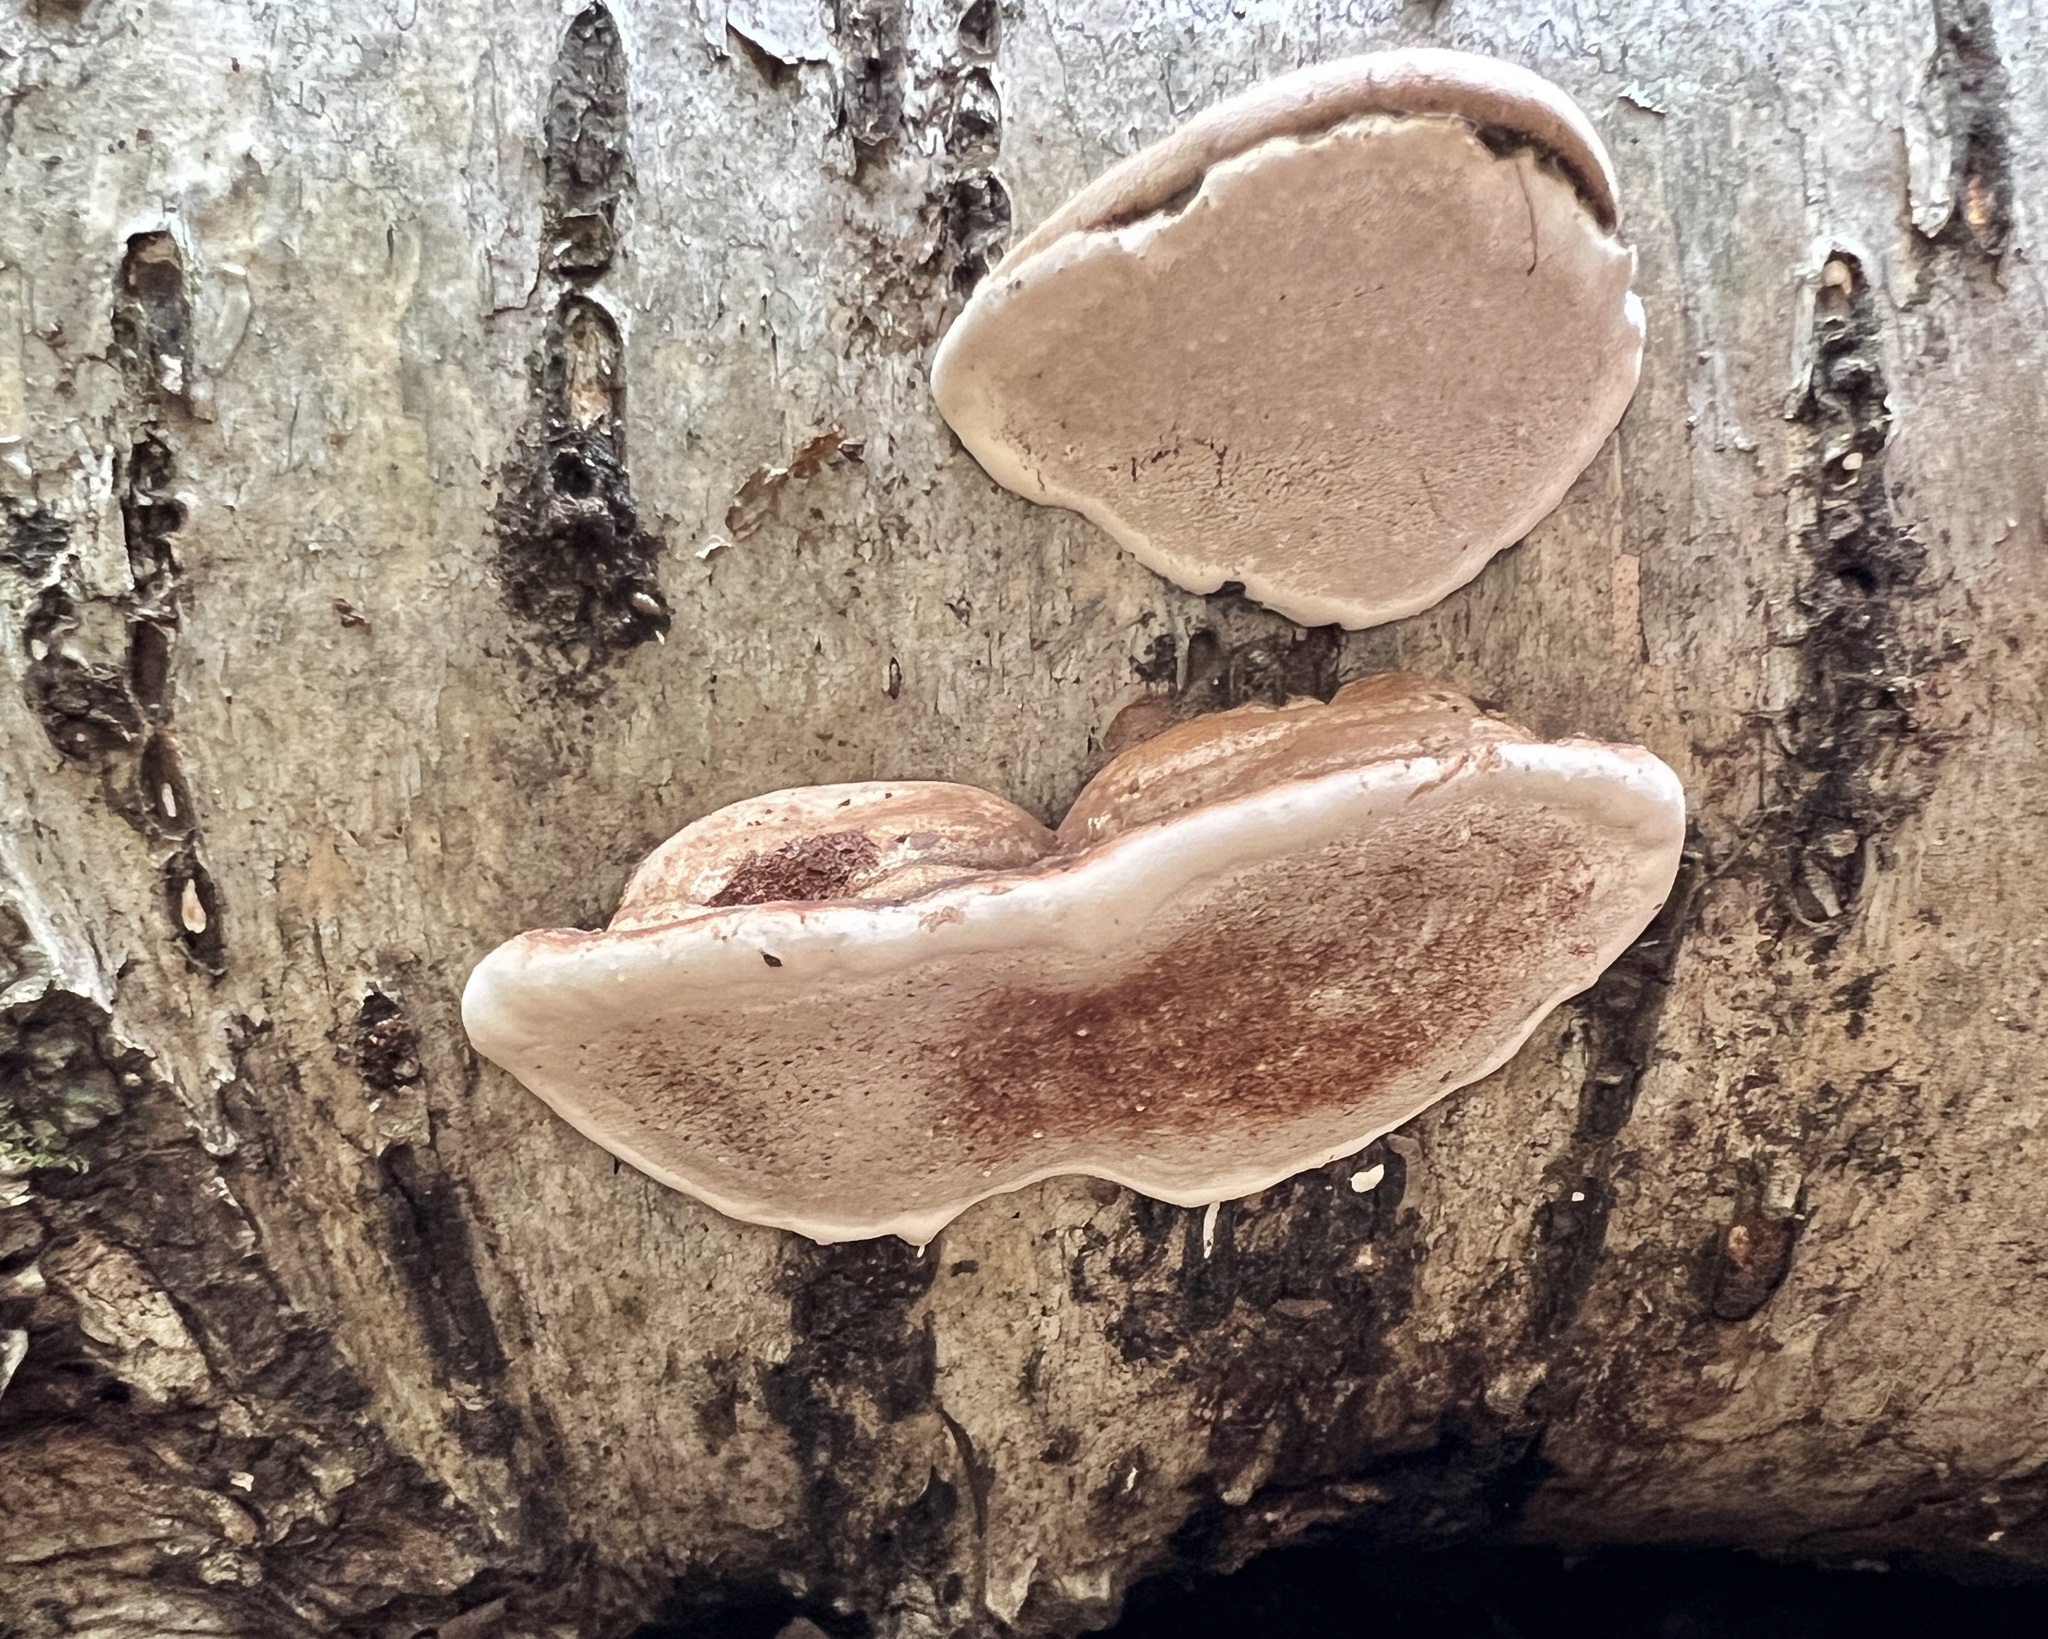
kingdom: Fungi
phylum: Basidiomycota
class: Agaricomycetes
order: Polyporales
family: Polyporaceae
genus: Ganoderma
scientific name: Ganoderma applanatum
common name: Artist's bracket
